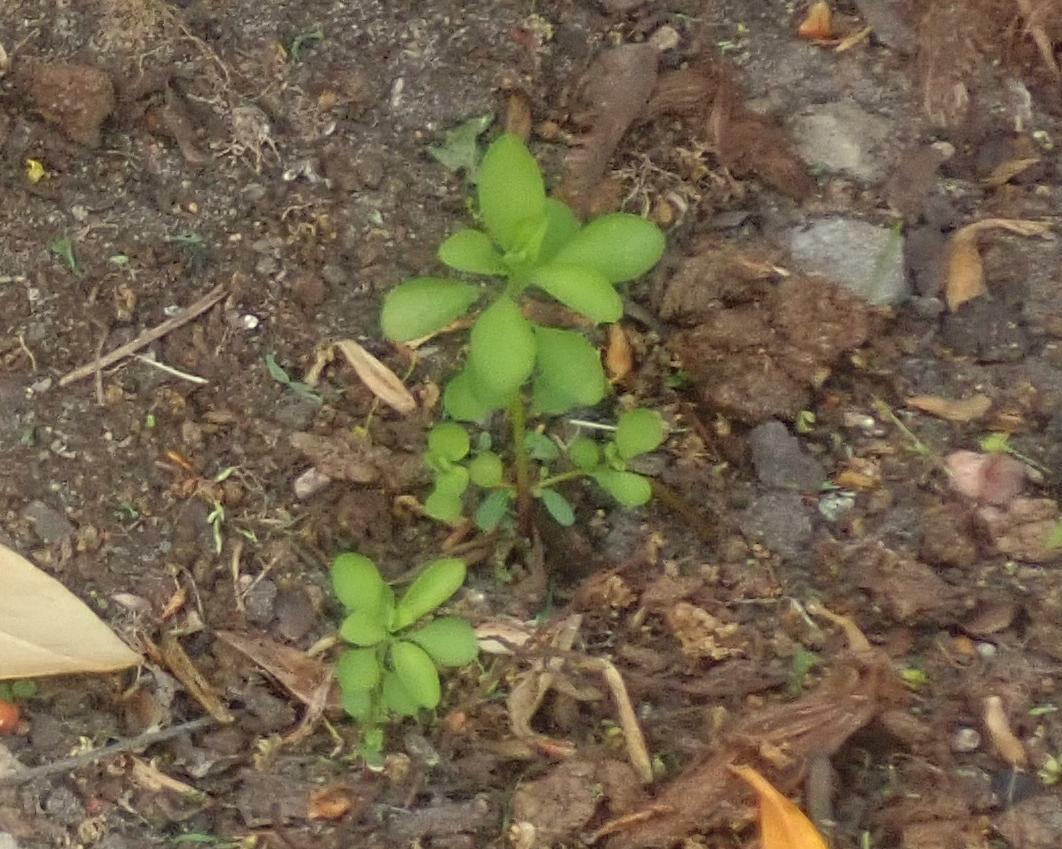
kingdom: Plantae
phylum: Tracheophyta
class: Magnoliopsida
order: Malpighiales
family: Euphorbiaceae
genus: Euphorbia
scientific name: Euphorbia peplus
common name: Petty spurge
